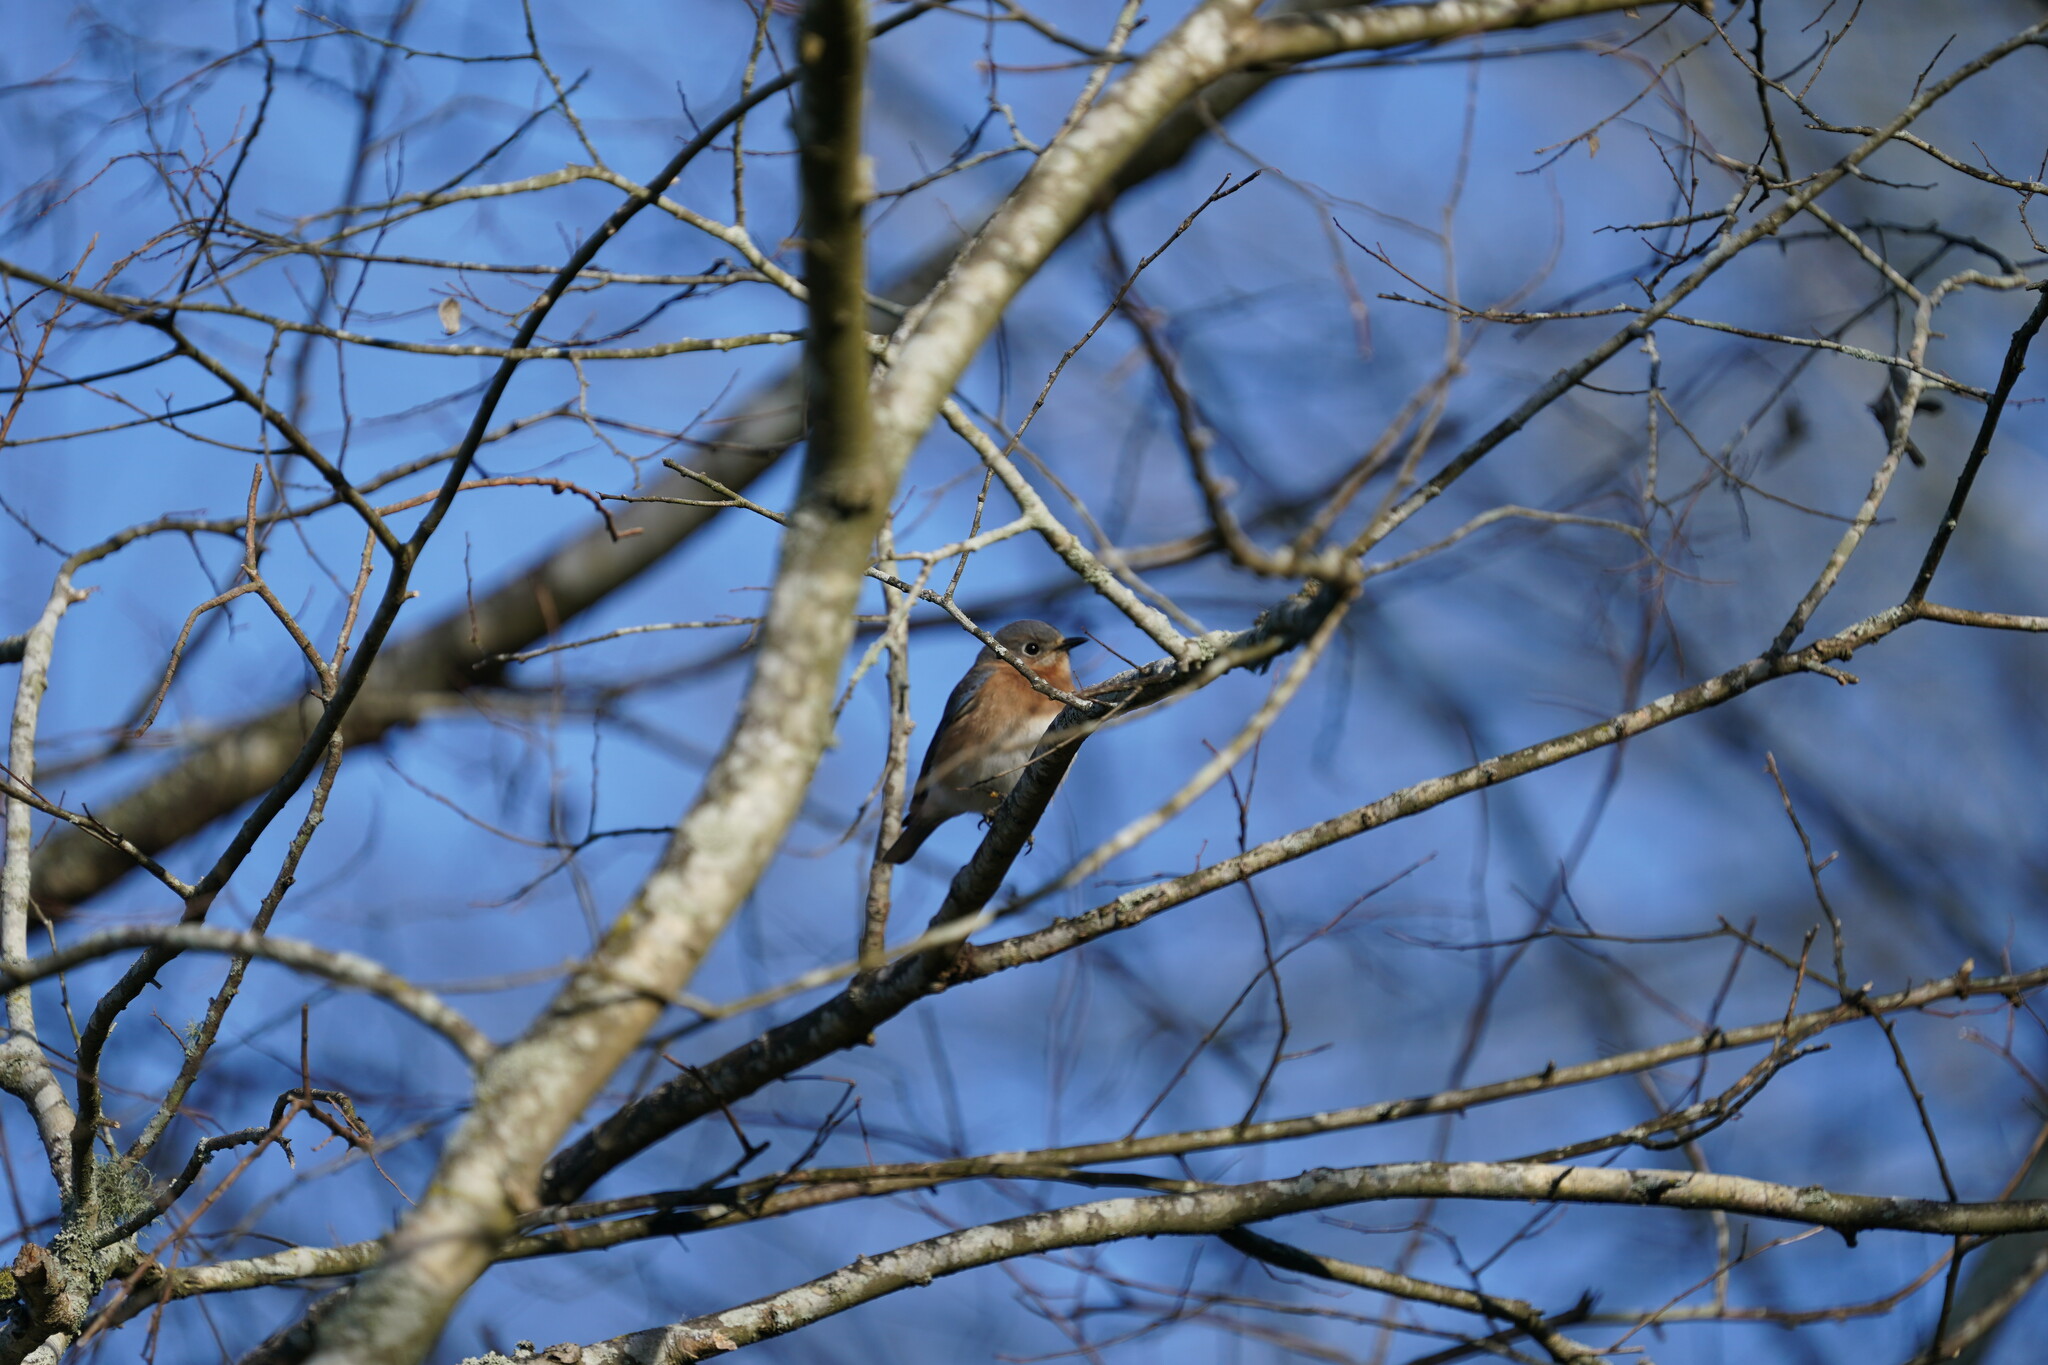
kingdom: Animalia
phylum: Chordata
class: Aves
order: Passeriformes
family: Turdidae
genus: Sialia
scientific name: Sialia sialis
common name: Eastern bluebird
